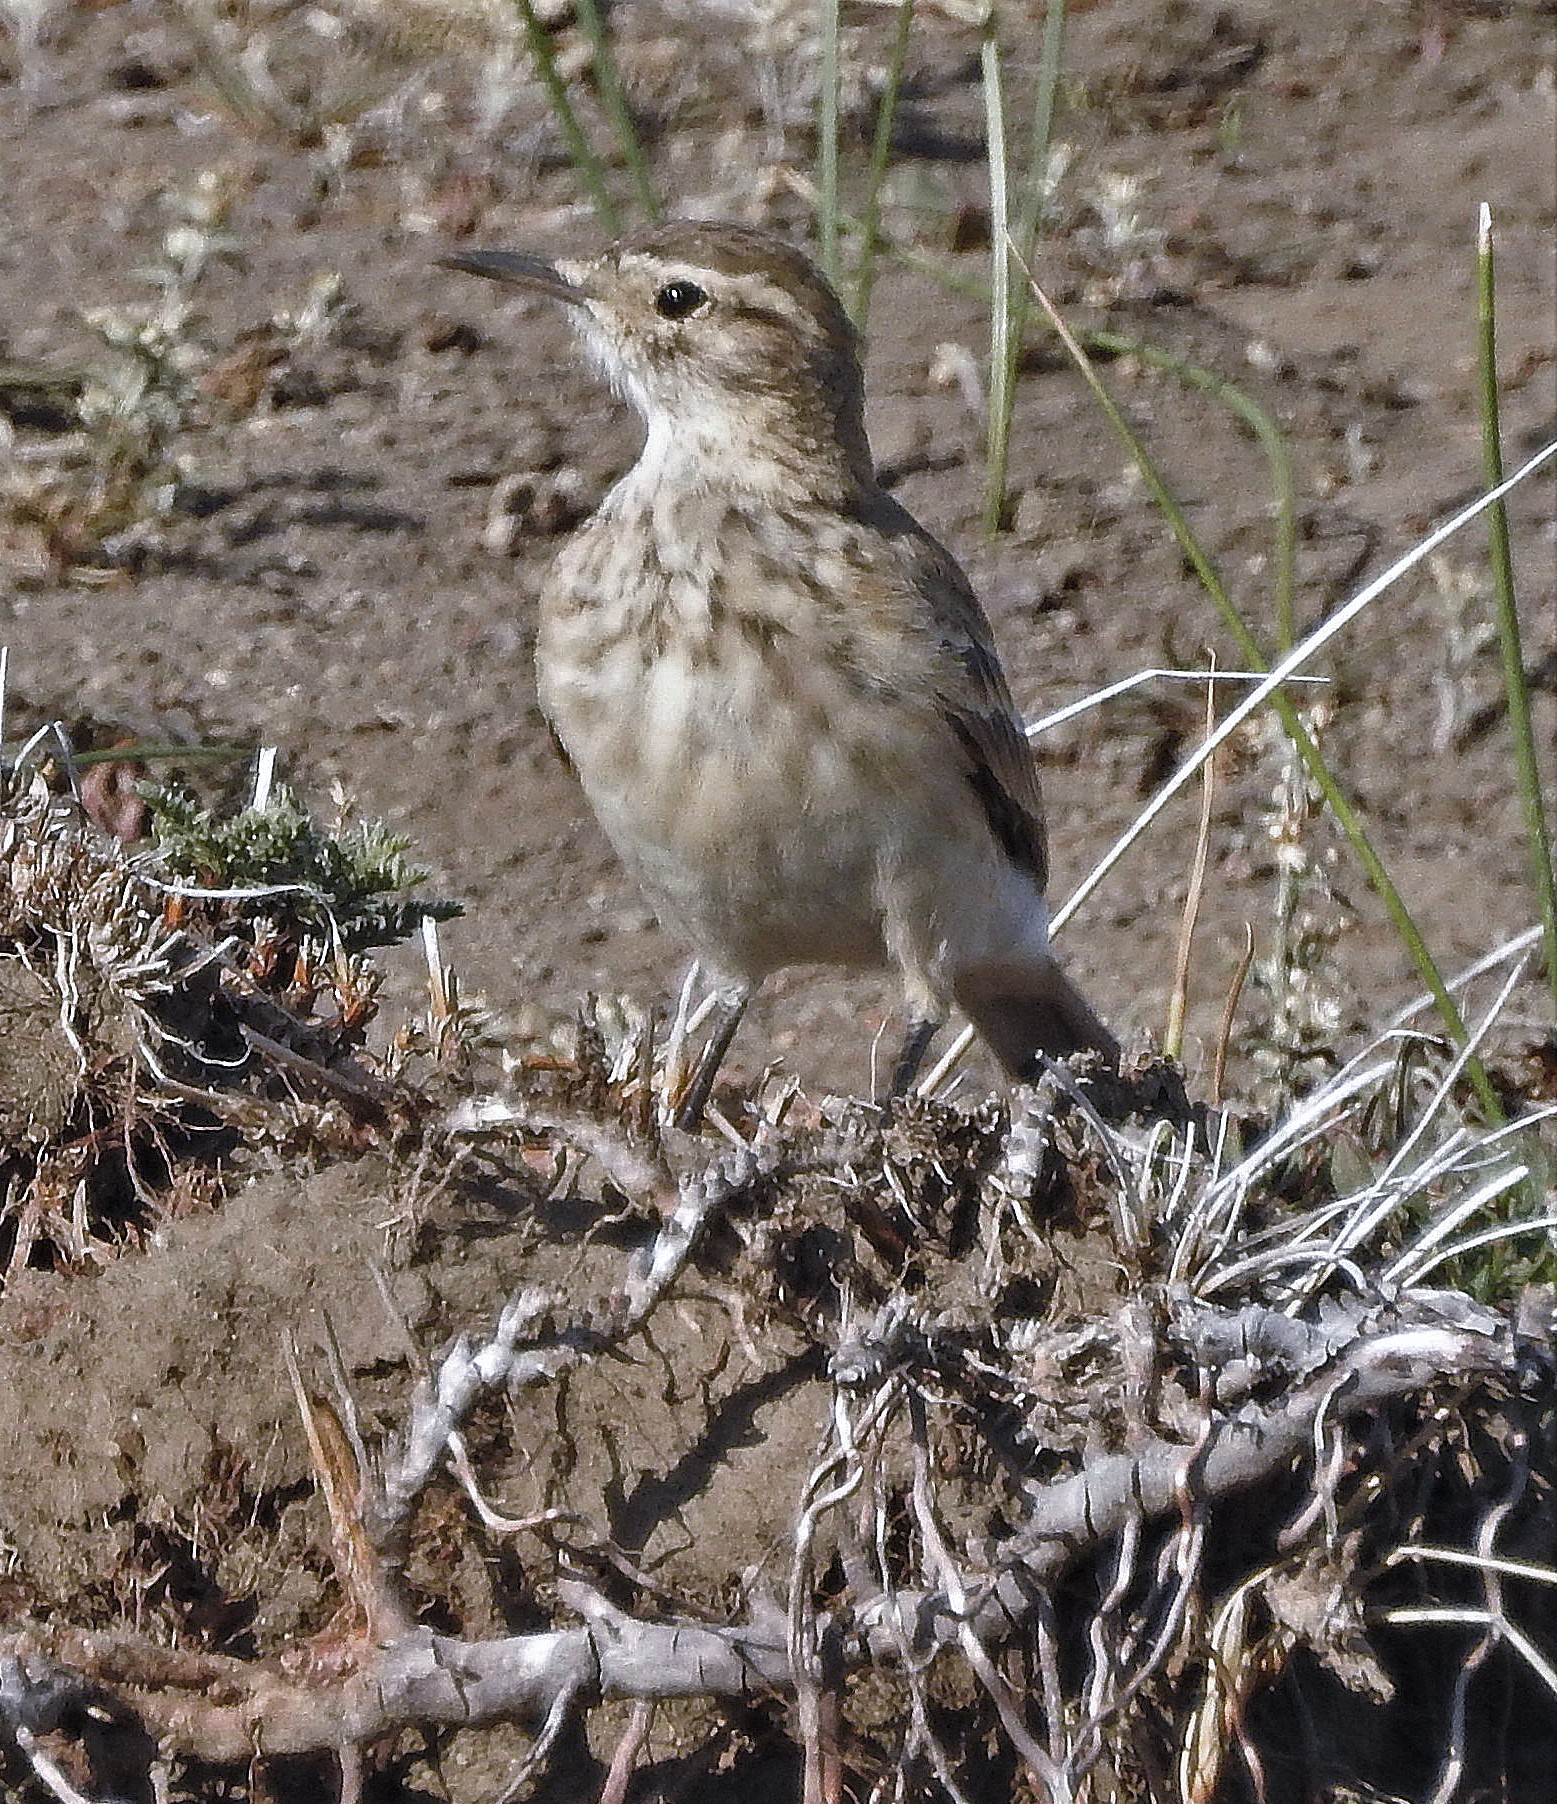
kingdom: Animalia
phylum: Chordata
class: Aves
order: Passeriformes
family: Furnariidae
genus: Geositta
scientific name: Geositta cunicularia
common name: Common miner
